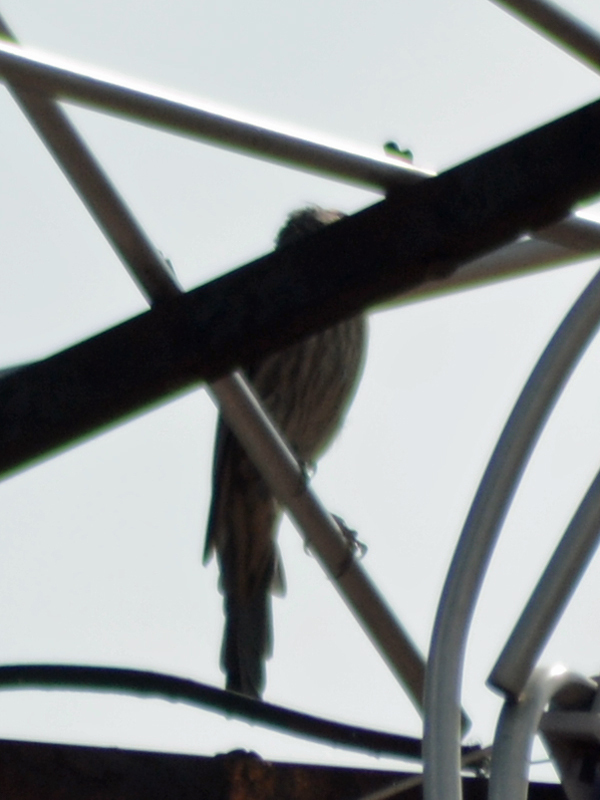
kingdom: Animalia
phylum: Chordata
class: Aves
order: Passeriformes
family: Fringillidae
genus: Haemorhous
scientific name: Haemorhous mexicanus
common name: House finch
